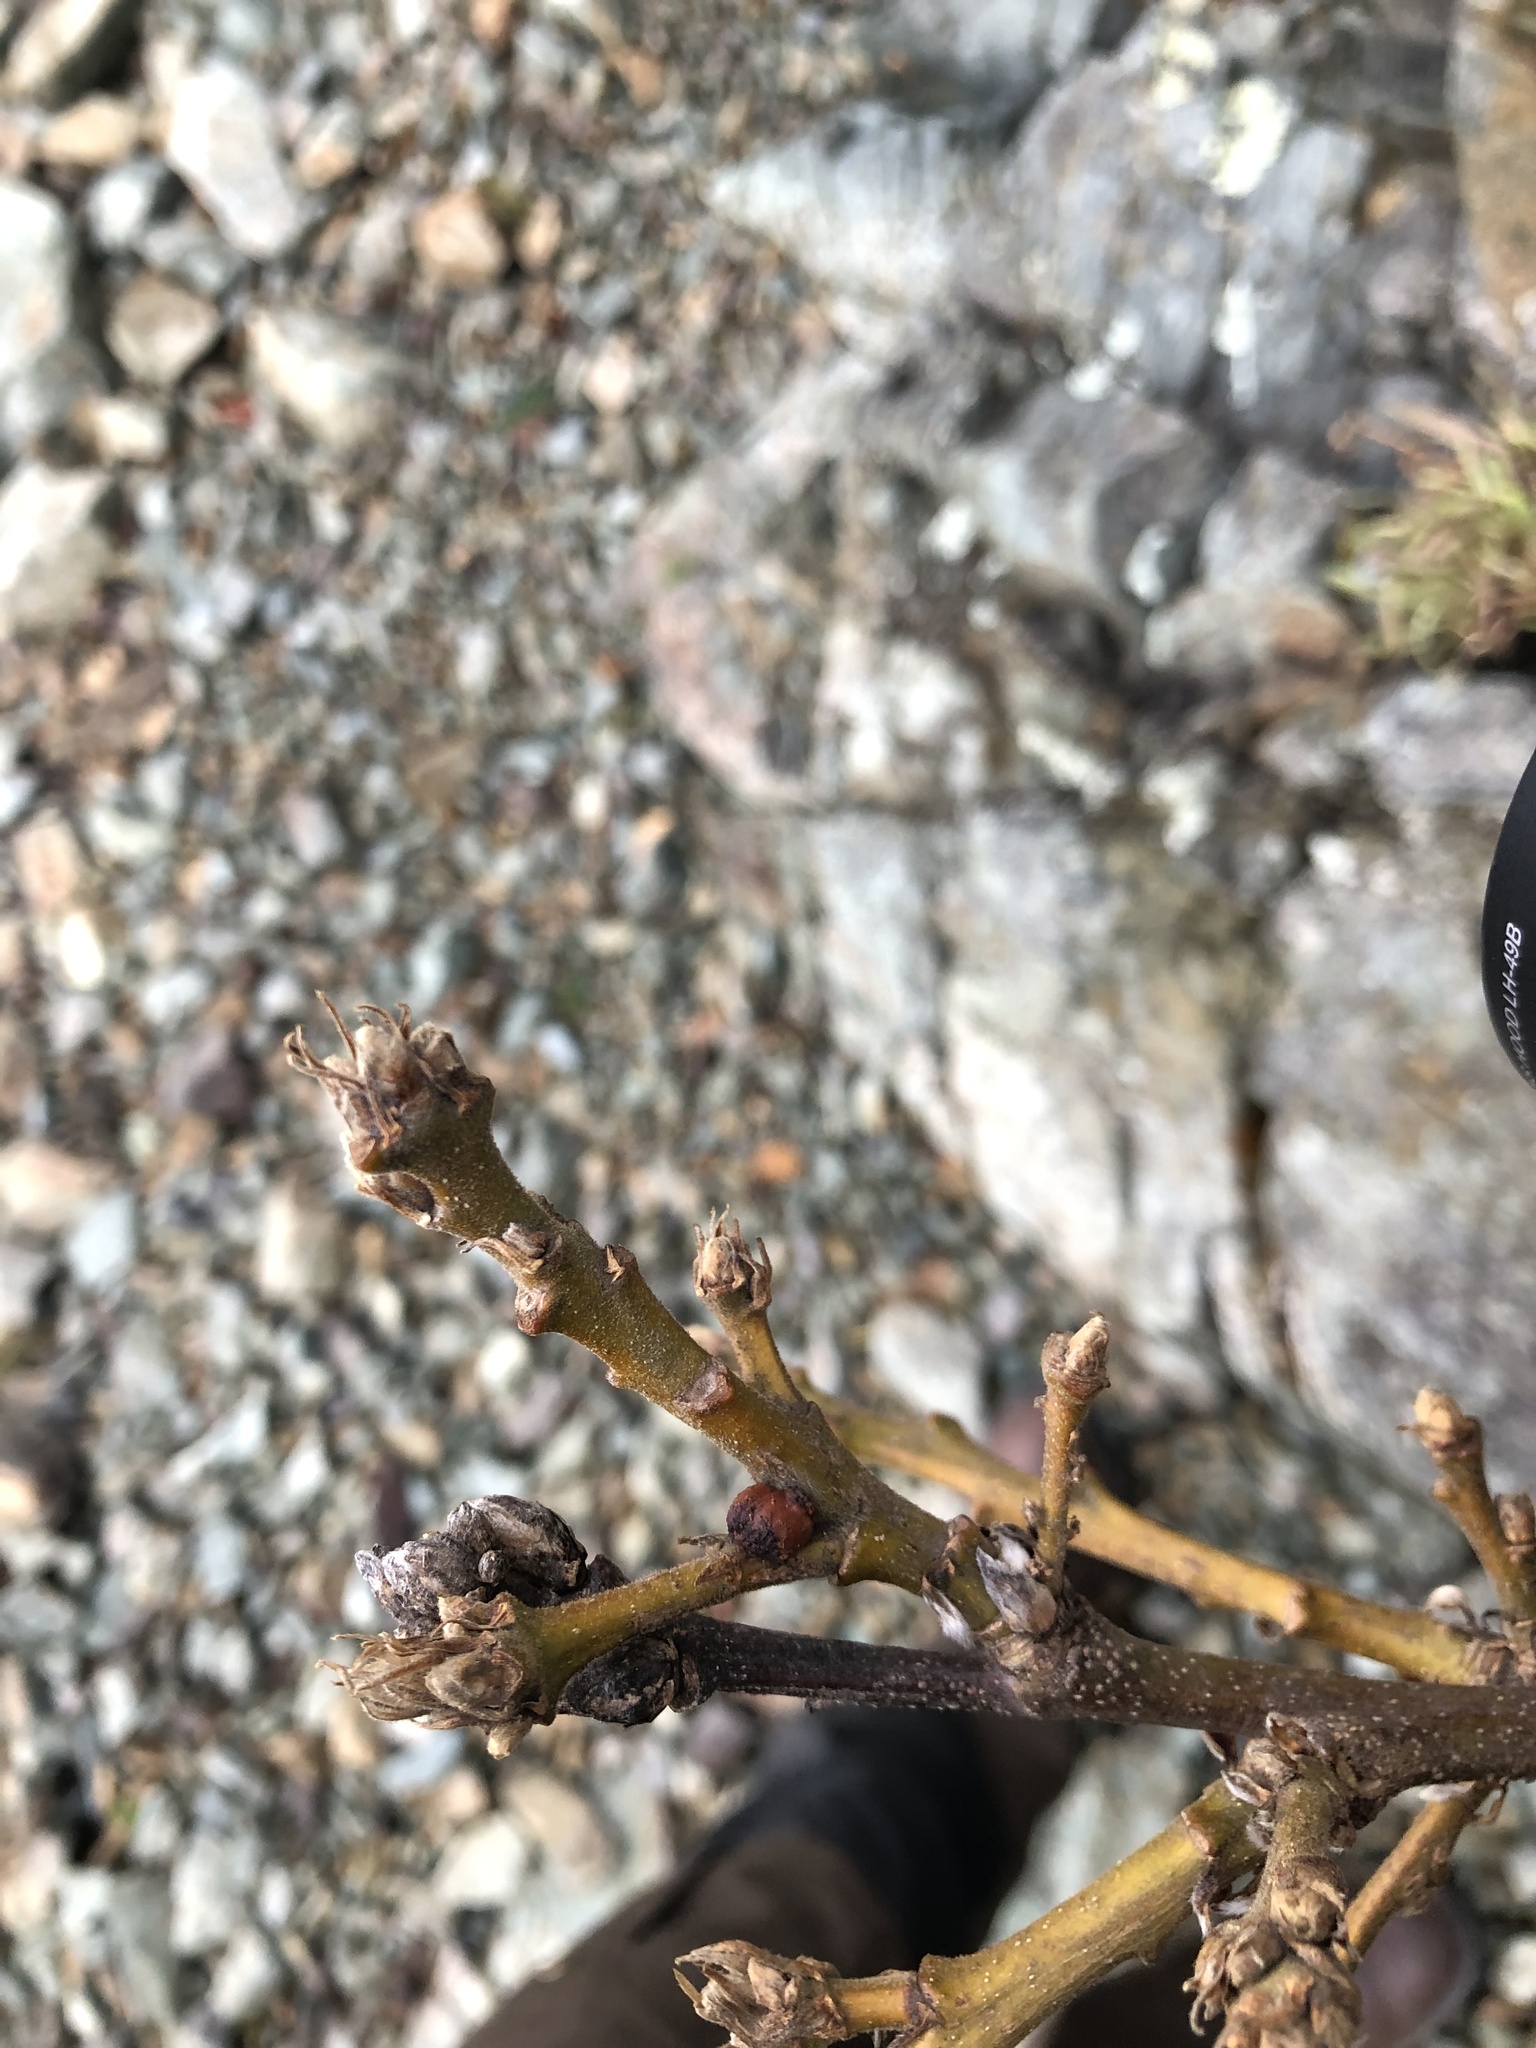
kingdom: Animalia
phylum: Arthropoda
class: Insecta
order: Hymenoptera
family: Cynipidae
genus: Disholcaspis
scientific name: Disholcaspis
